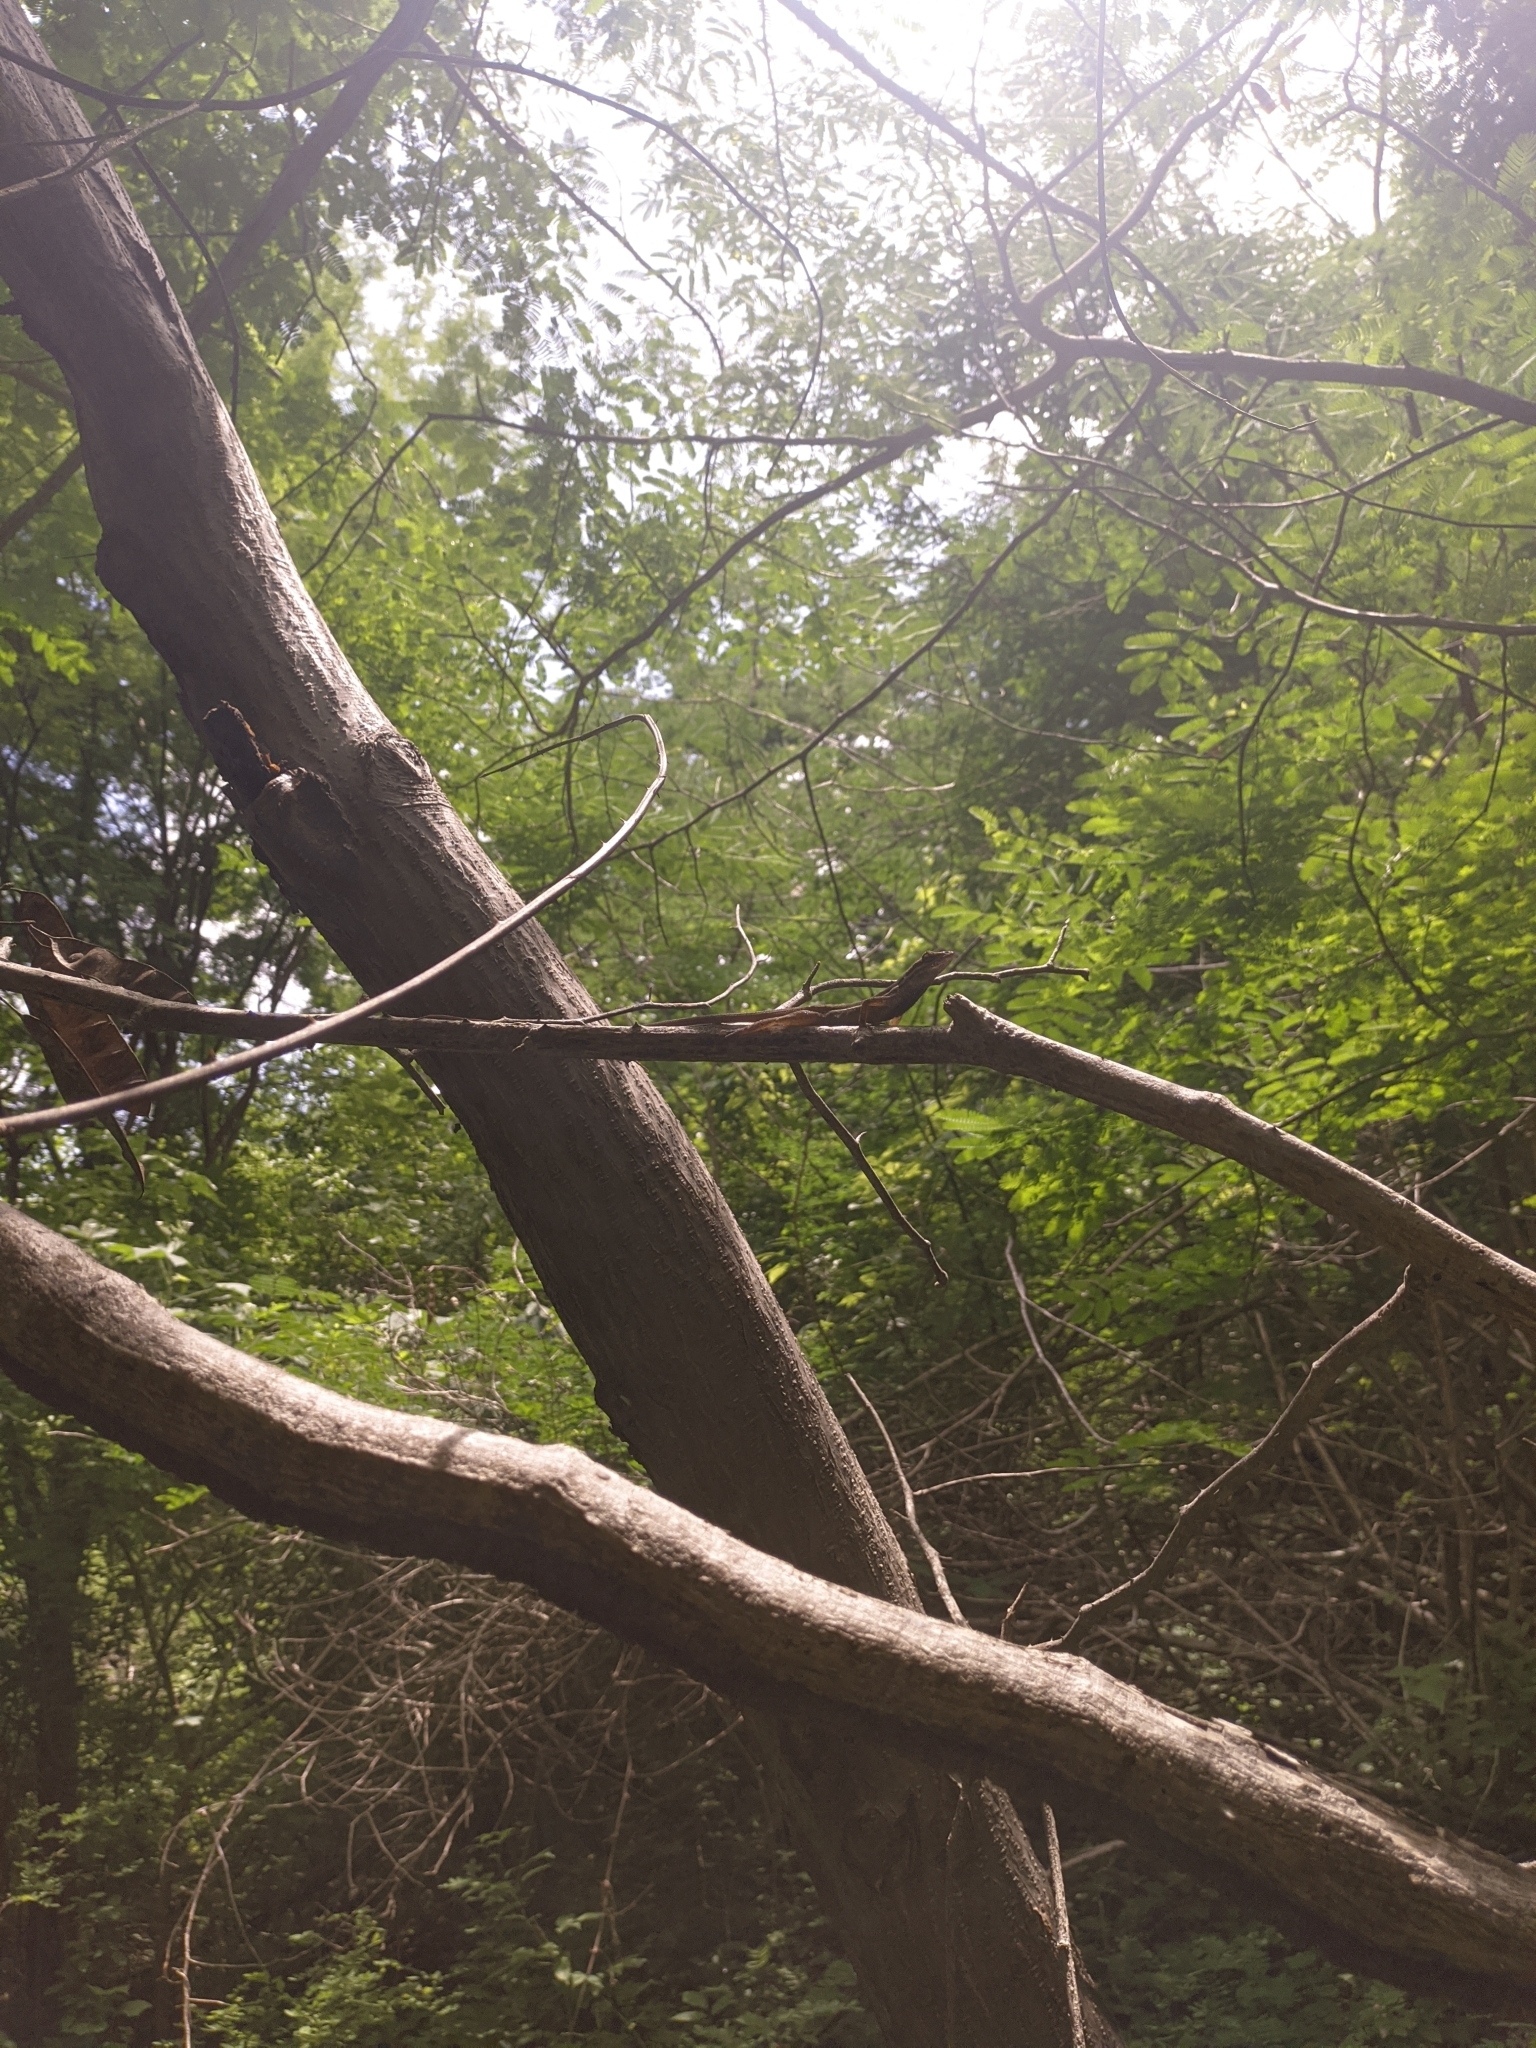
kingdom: Animalia
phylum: Chordata
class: Squamata
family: Dactyloidae
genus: Anolis
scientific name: Anolis auratus
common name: Grass anole
